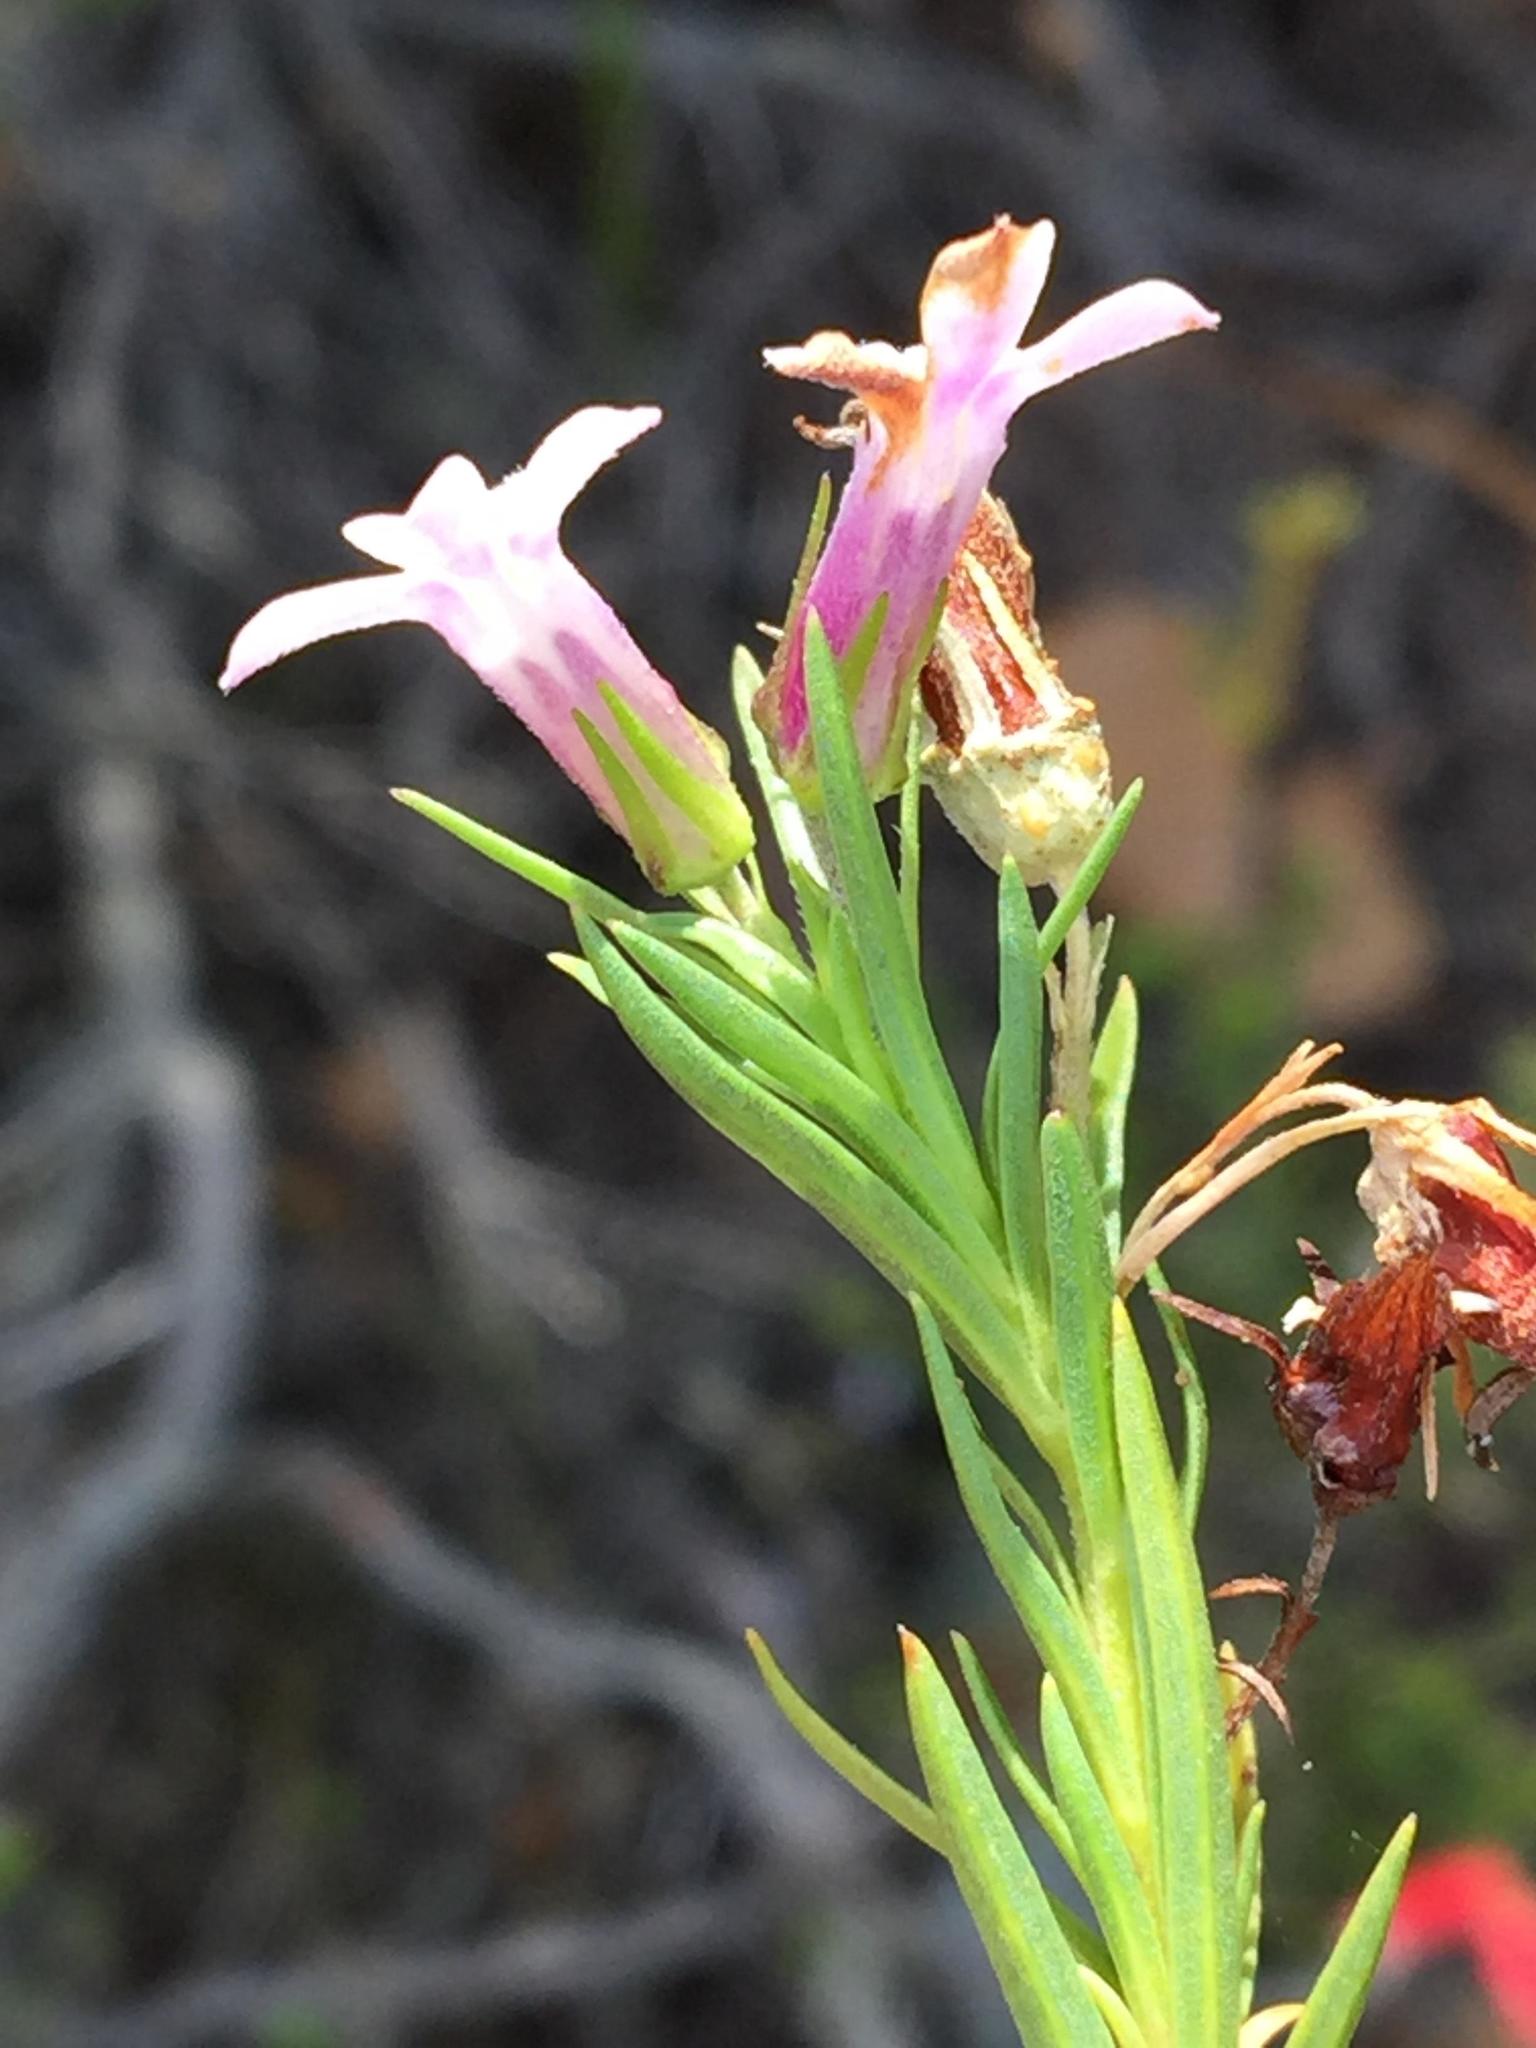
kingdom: Plantae
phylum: Tracheophyta
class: Magnoliopsida
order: Asterales
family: Campanulaceae
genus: Lobelia
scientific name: Lobelia pinifolia
